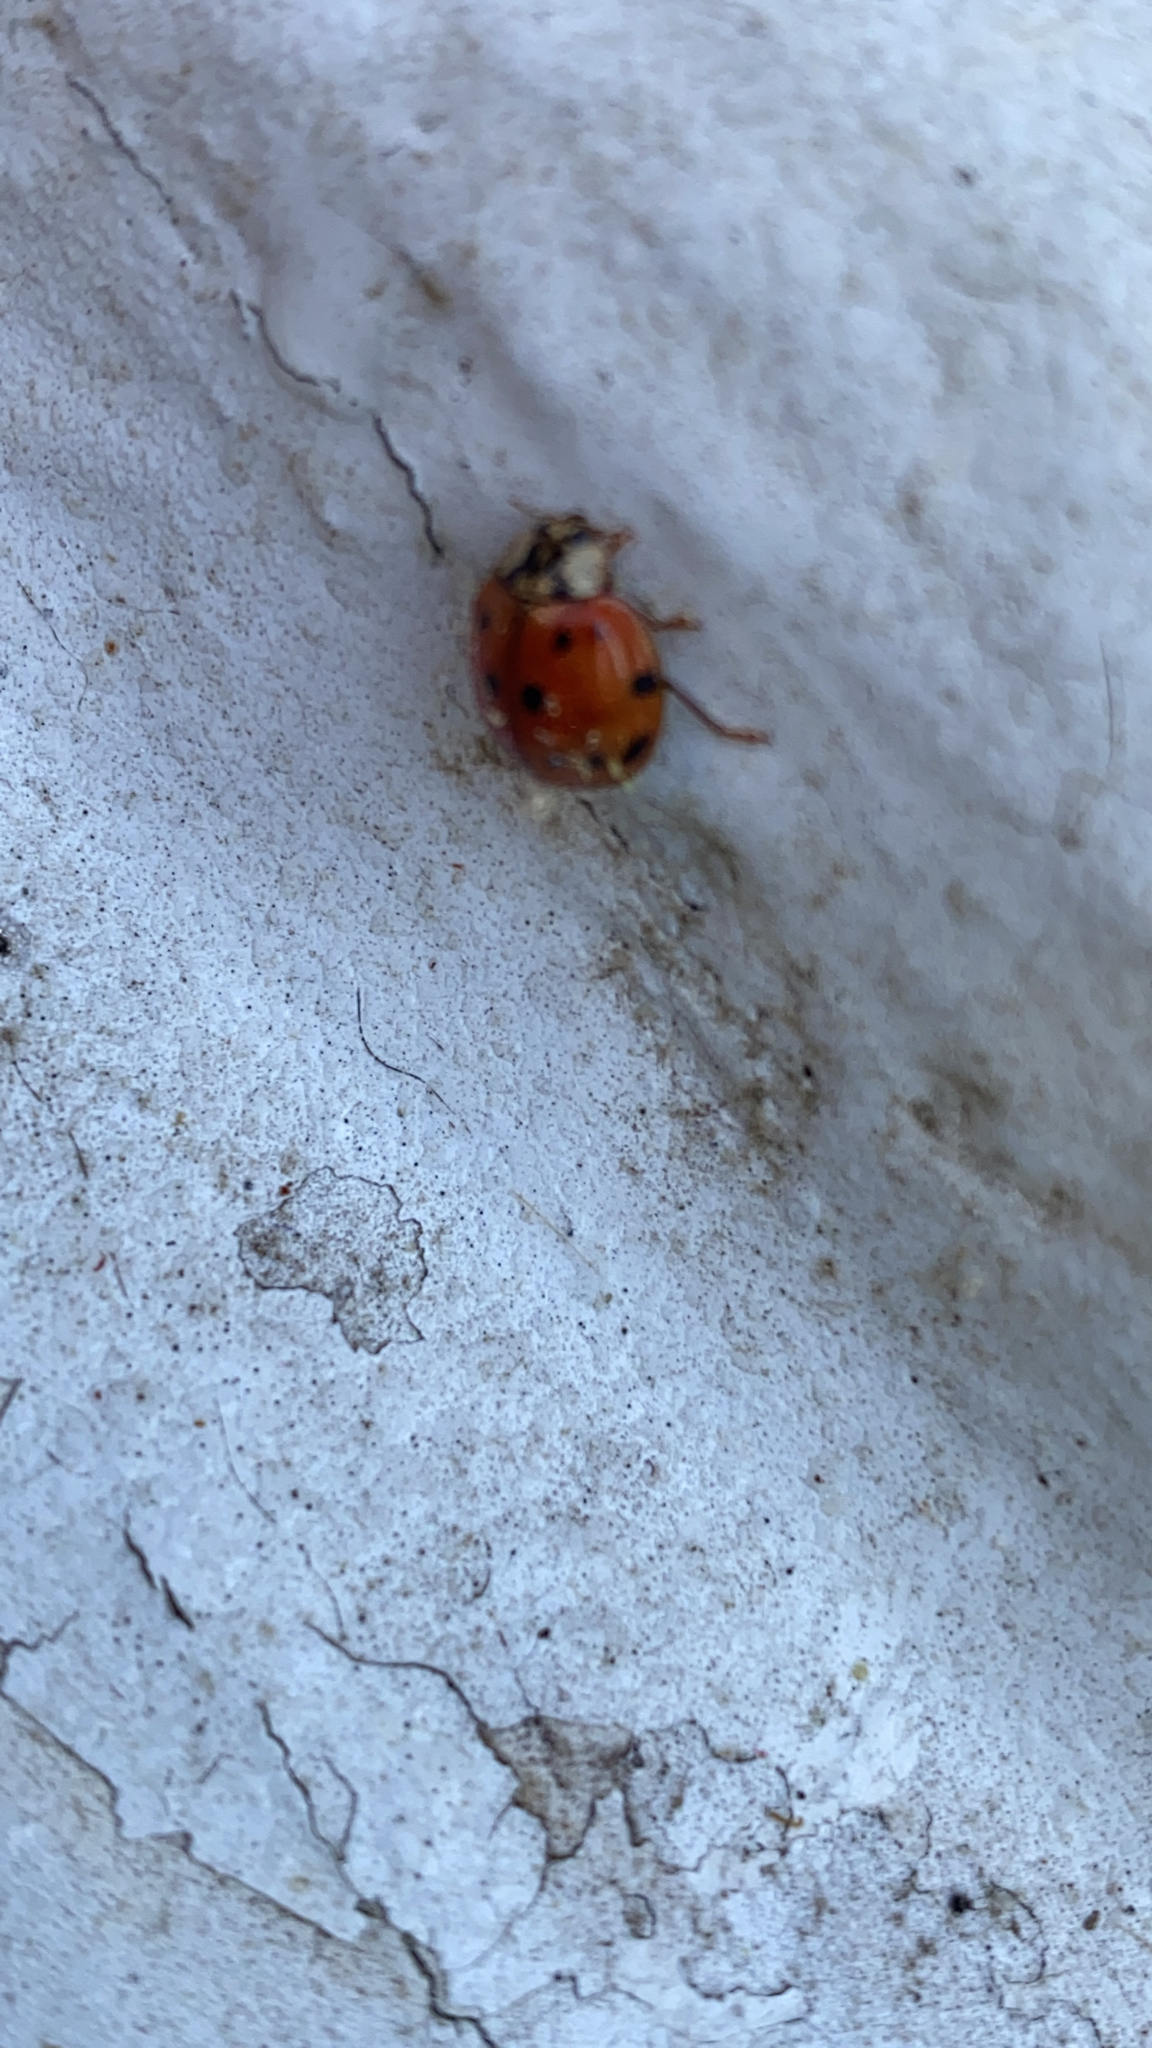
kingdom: Animalia
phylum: Arthropoda
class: Insecta
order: Coleoptera
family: Coccinellidae
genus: Harmonia
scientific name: Harmonia axyridis
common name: Harlequin ladybird
